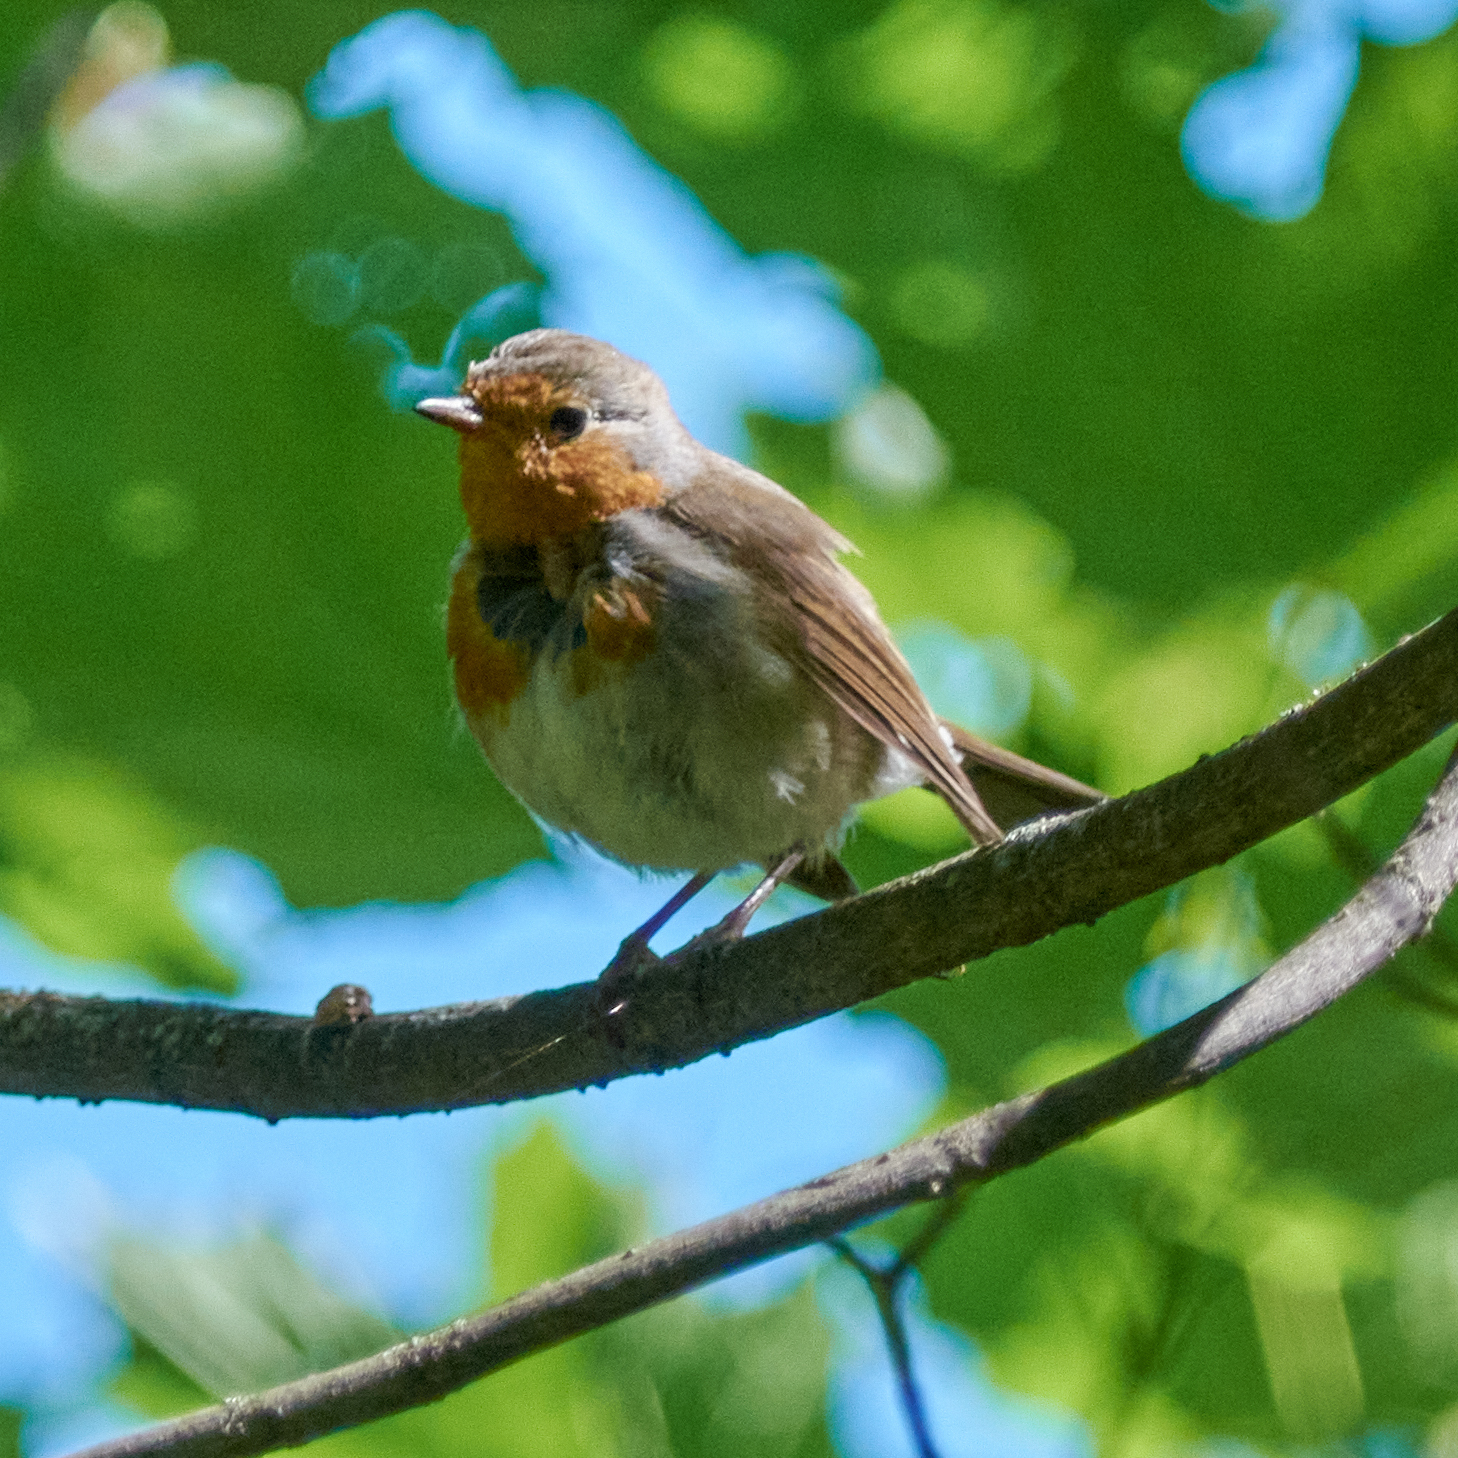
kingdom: Animalia
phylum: Chordata
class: Aves
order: Passeriformes
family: Muscicapidae
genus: Erithacus
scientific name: Erithacus rubecula
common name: European robin
